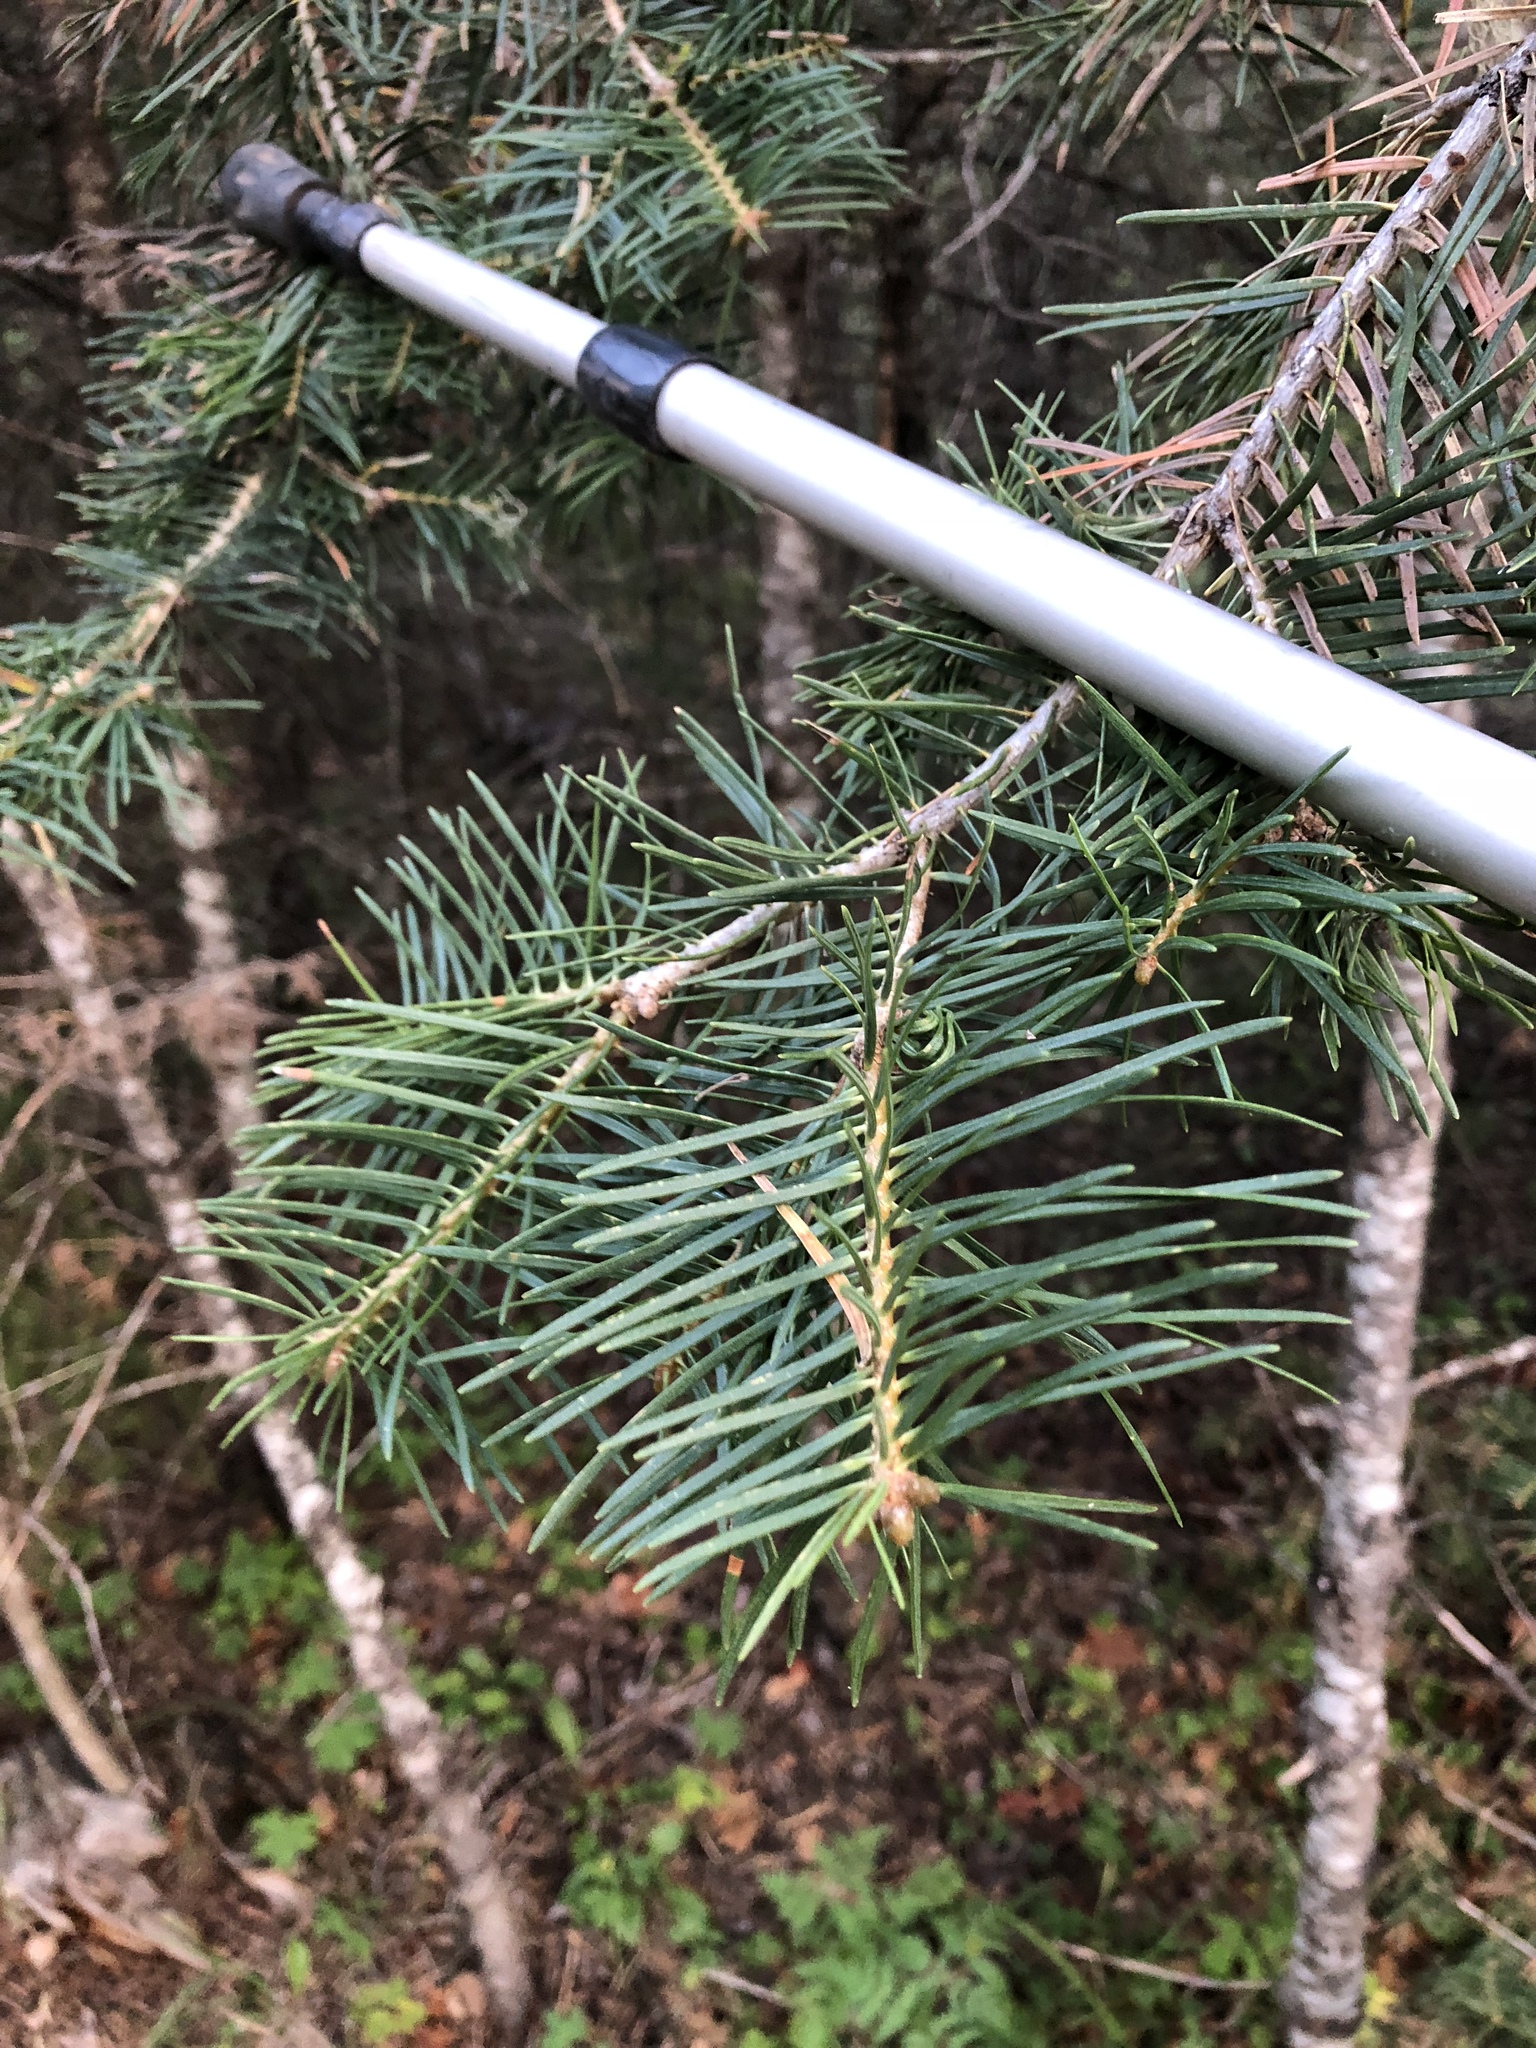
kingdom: Plantae
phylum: Tracheophyta
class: Pinopsida
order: Pinales
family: Pinaceae
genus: Abies
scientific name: Abies concolor
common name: Colorado fir
